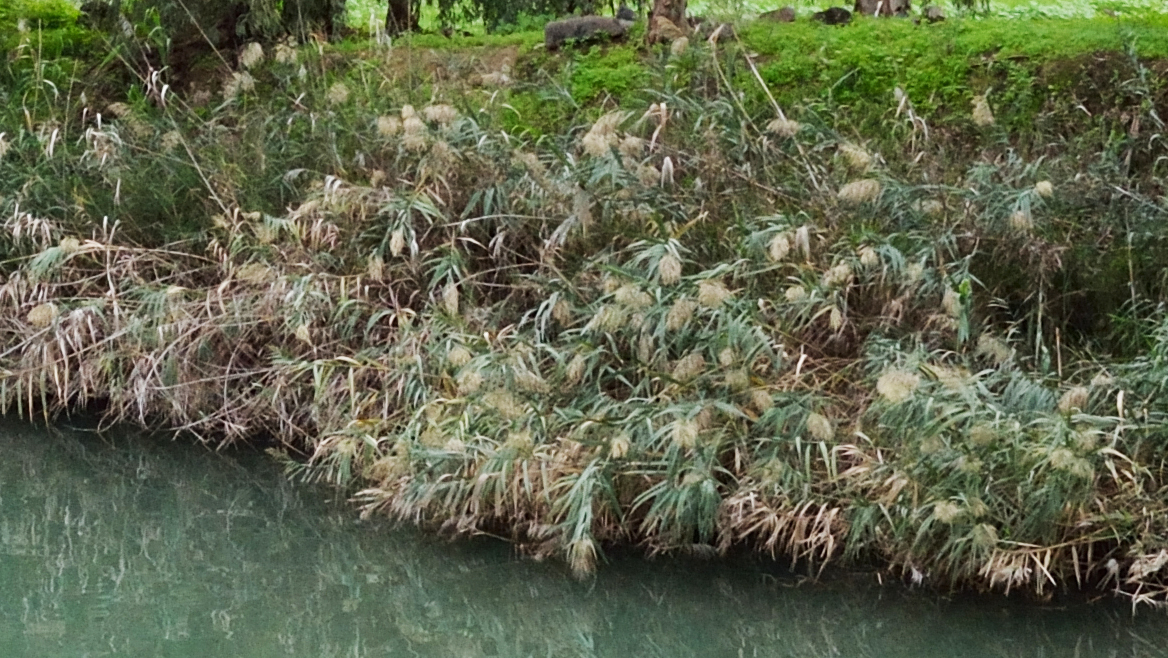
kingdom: Plantae
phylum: Tracheophyta
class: Liliopsida
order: Poales
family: Poaceae
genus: Phragmites
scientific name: Phragmites australis
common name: Common reed
